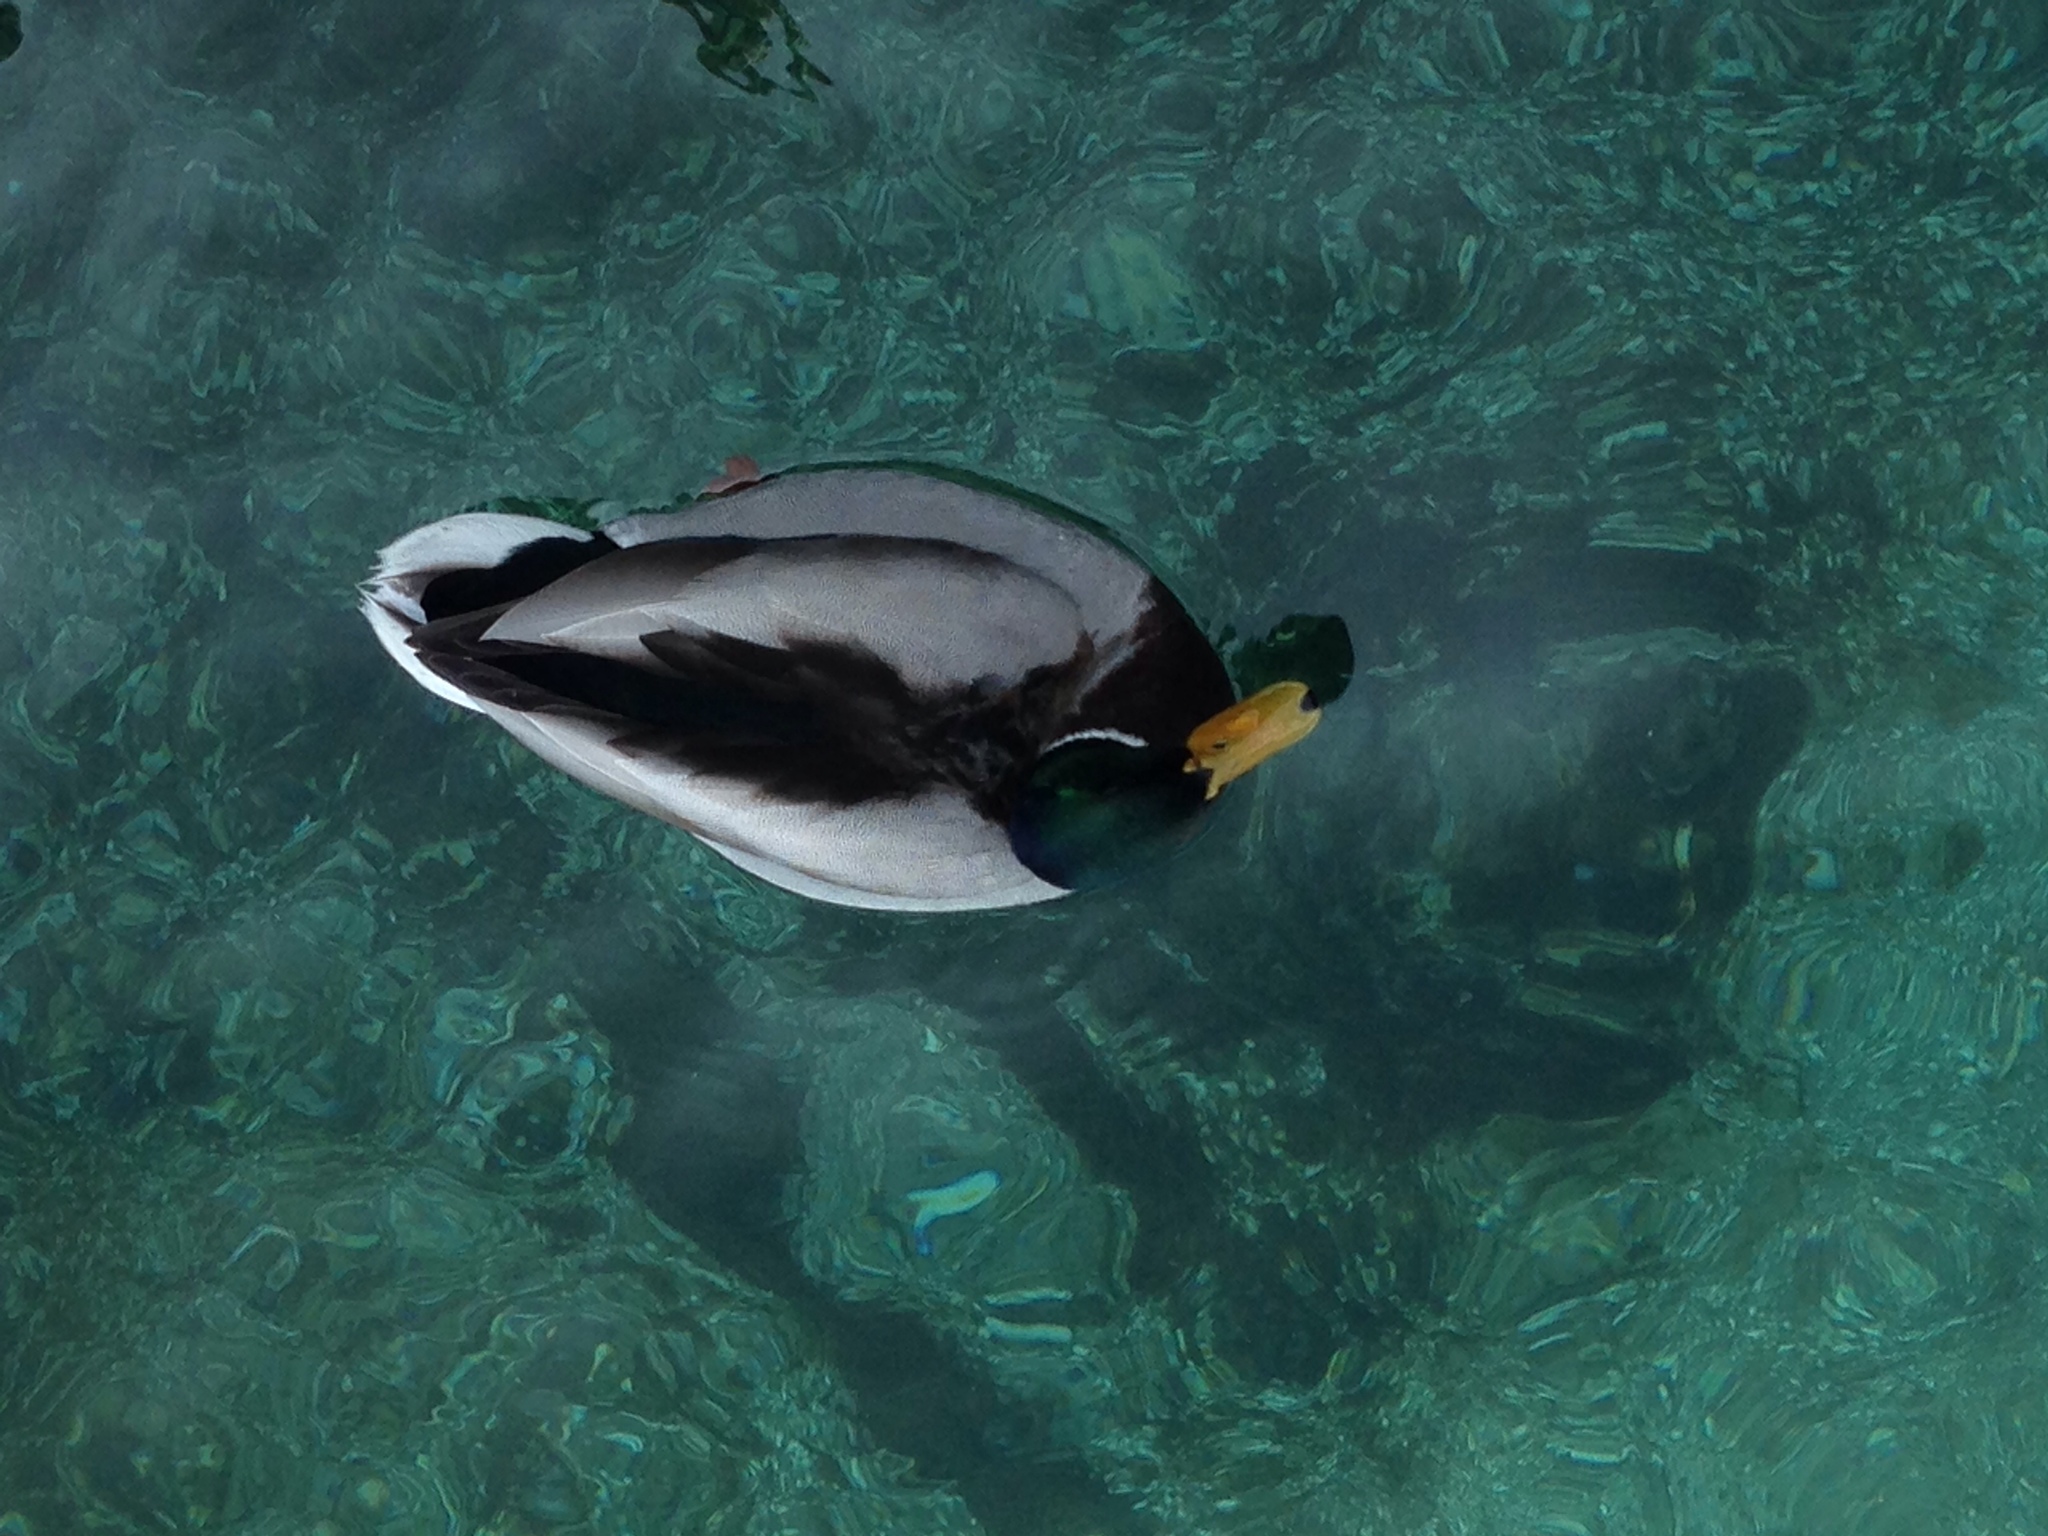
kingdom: Animalia
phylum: Chordata
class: Aves
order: Anseriformes
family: Anatidae
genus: Anas
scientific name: Anas platyrhynchos
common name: Mallard
